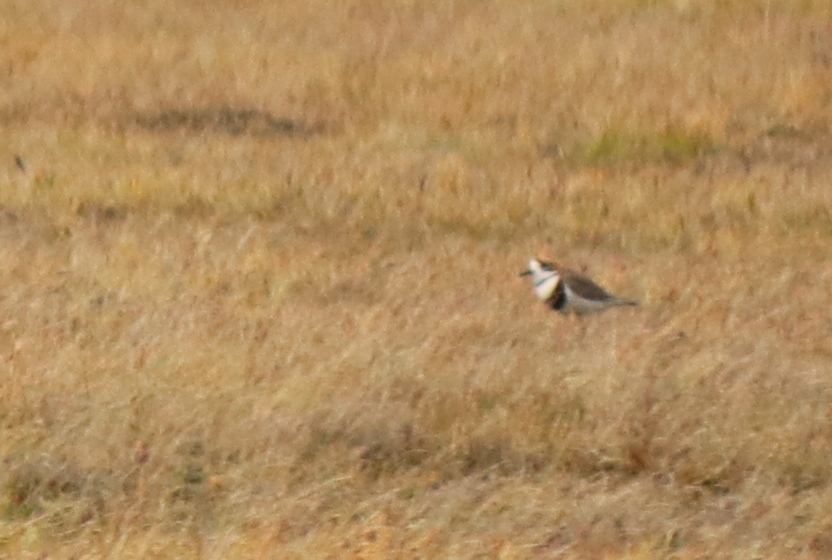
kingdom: Animalia
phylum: Chordata
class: Aves
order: Charadriiformes
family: Charadriidae
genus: Anarhynchus
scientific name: Anarhynchus
